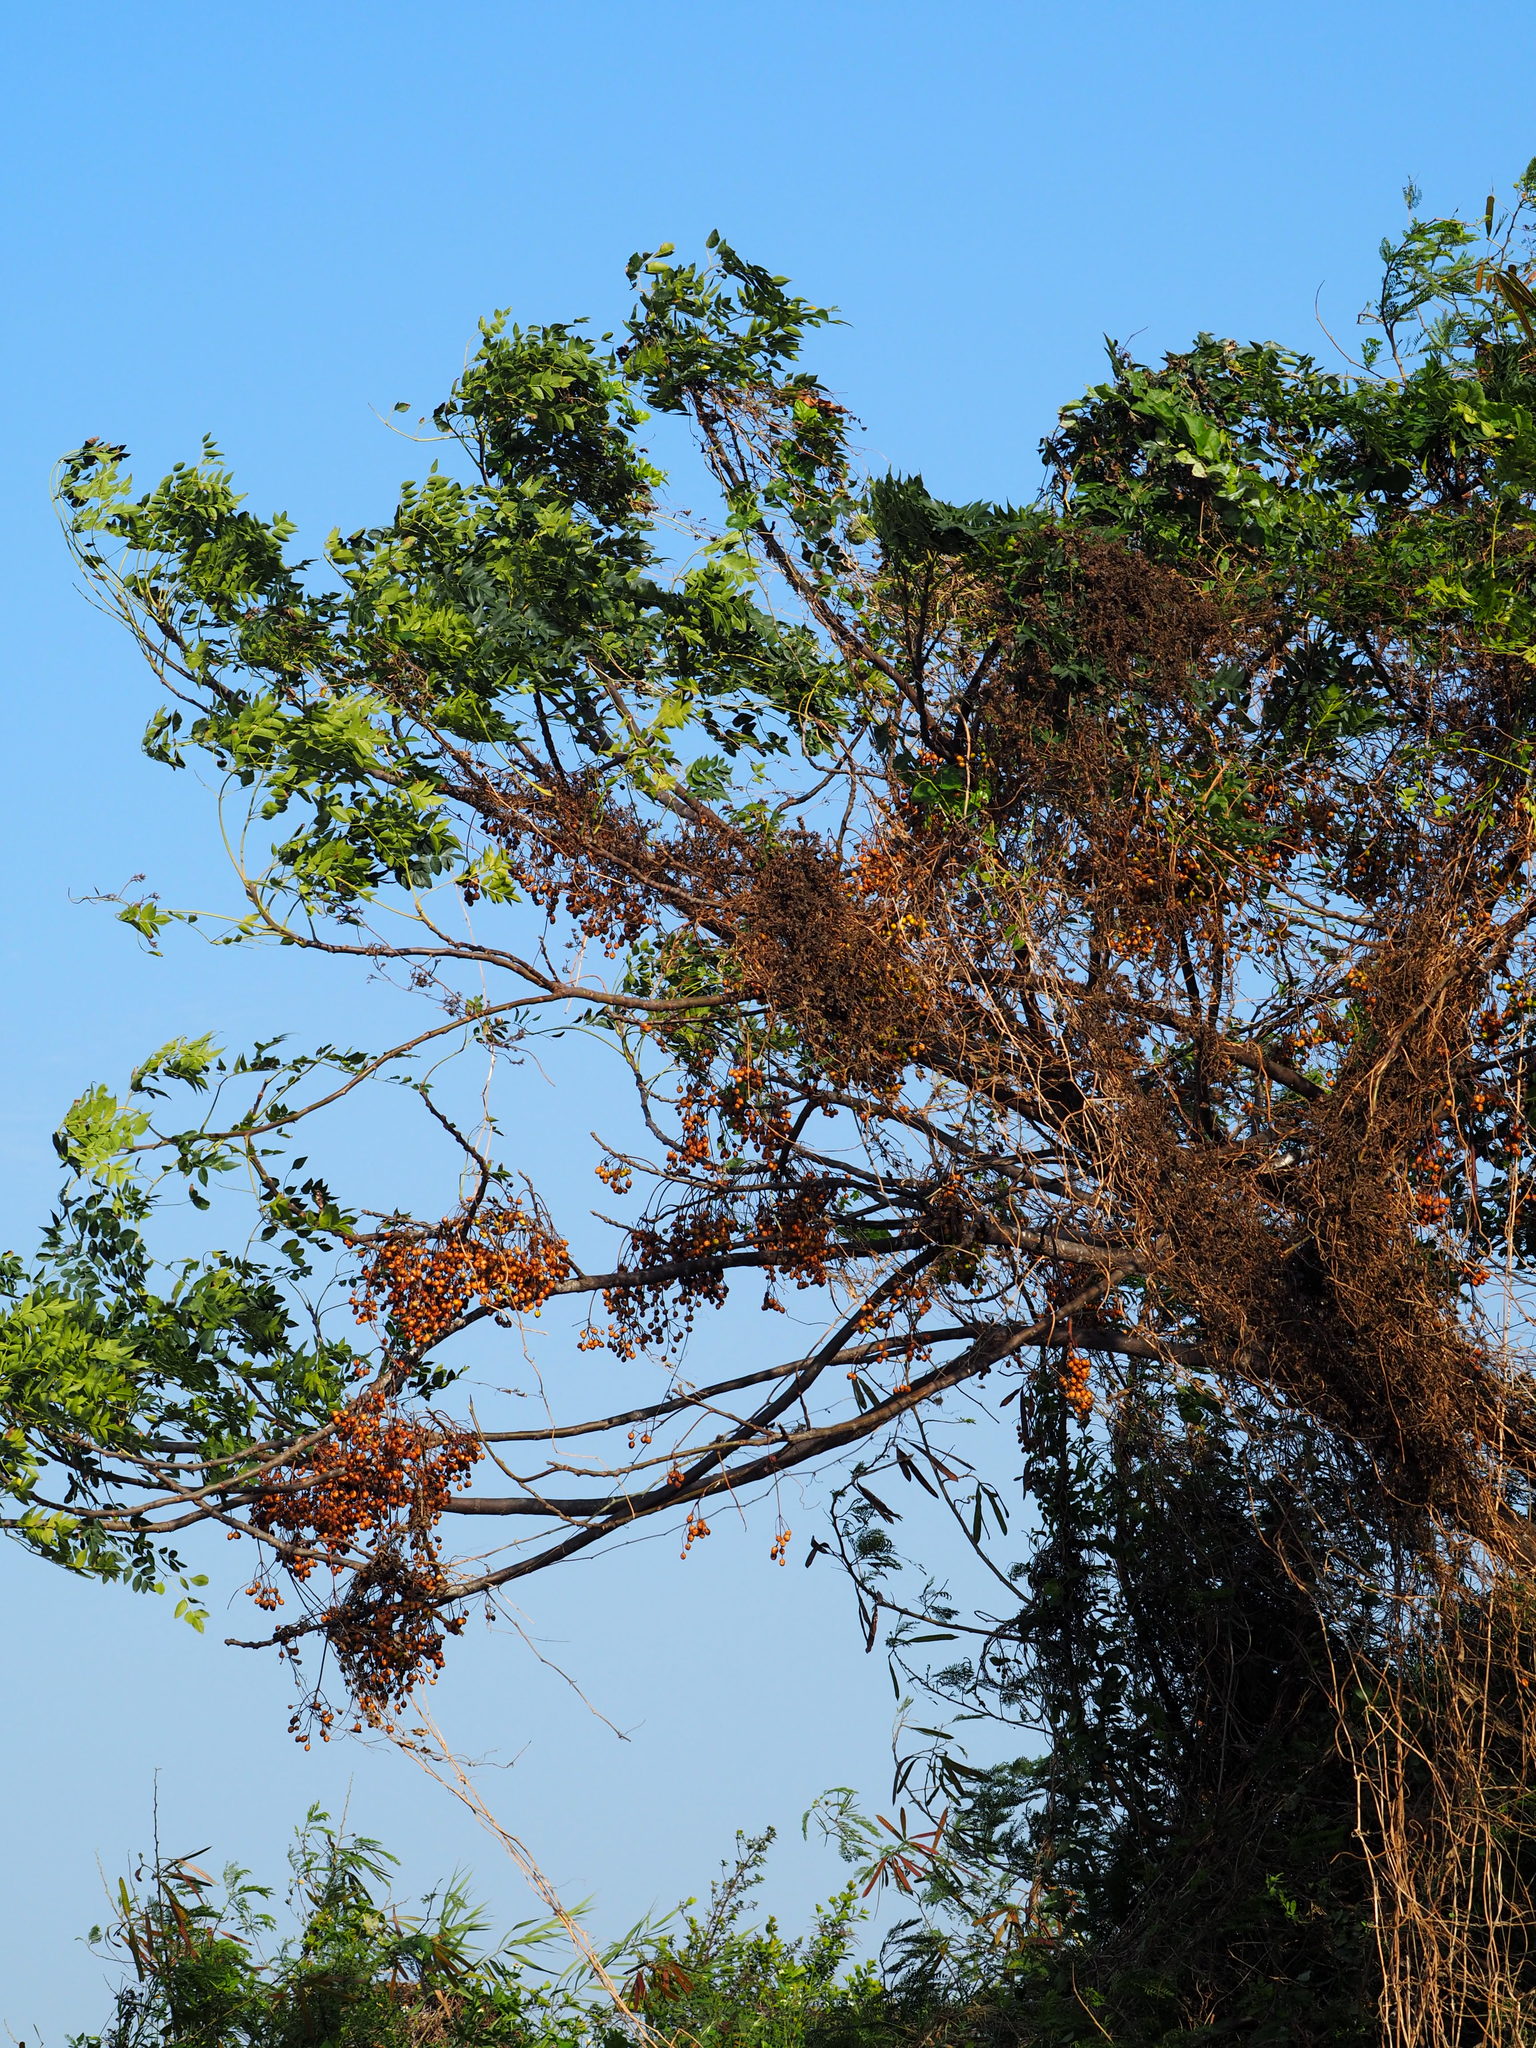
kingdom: Plantae
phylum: Tracheophyta
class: Magnoliopsida
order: Sapindales
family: Meliaceae
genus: Melia
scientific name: Melia azedarach
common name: Chinaberrytree
